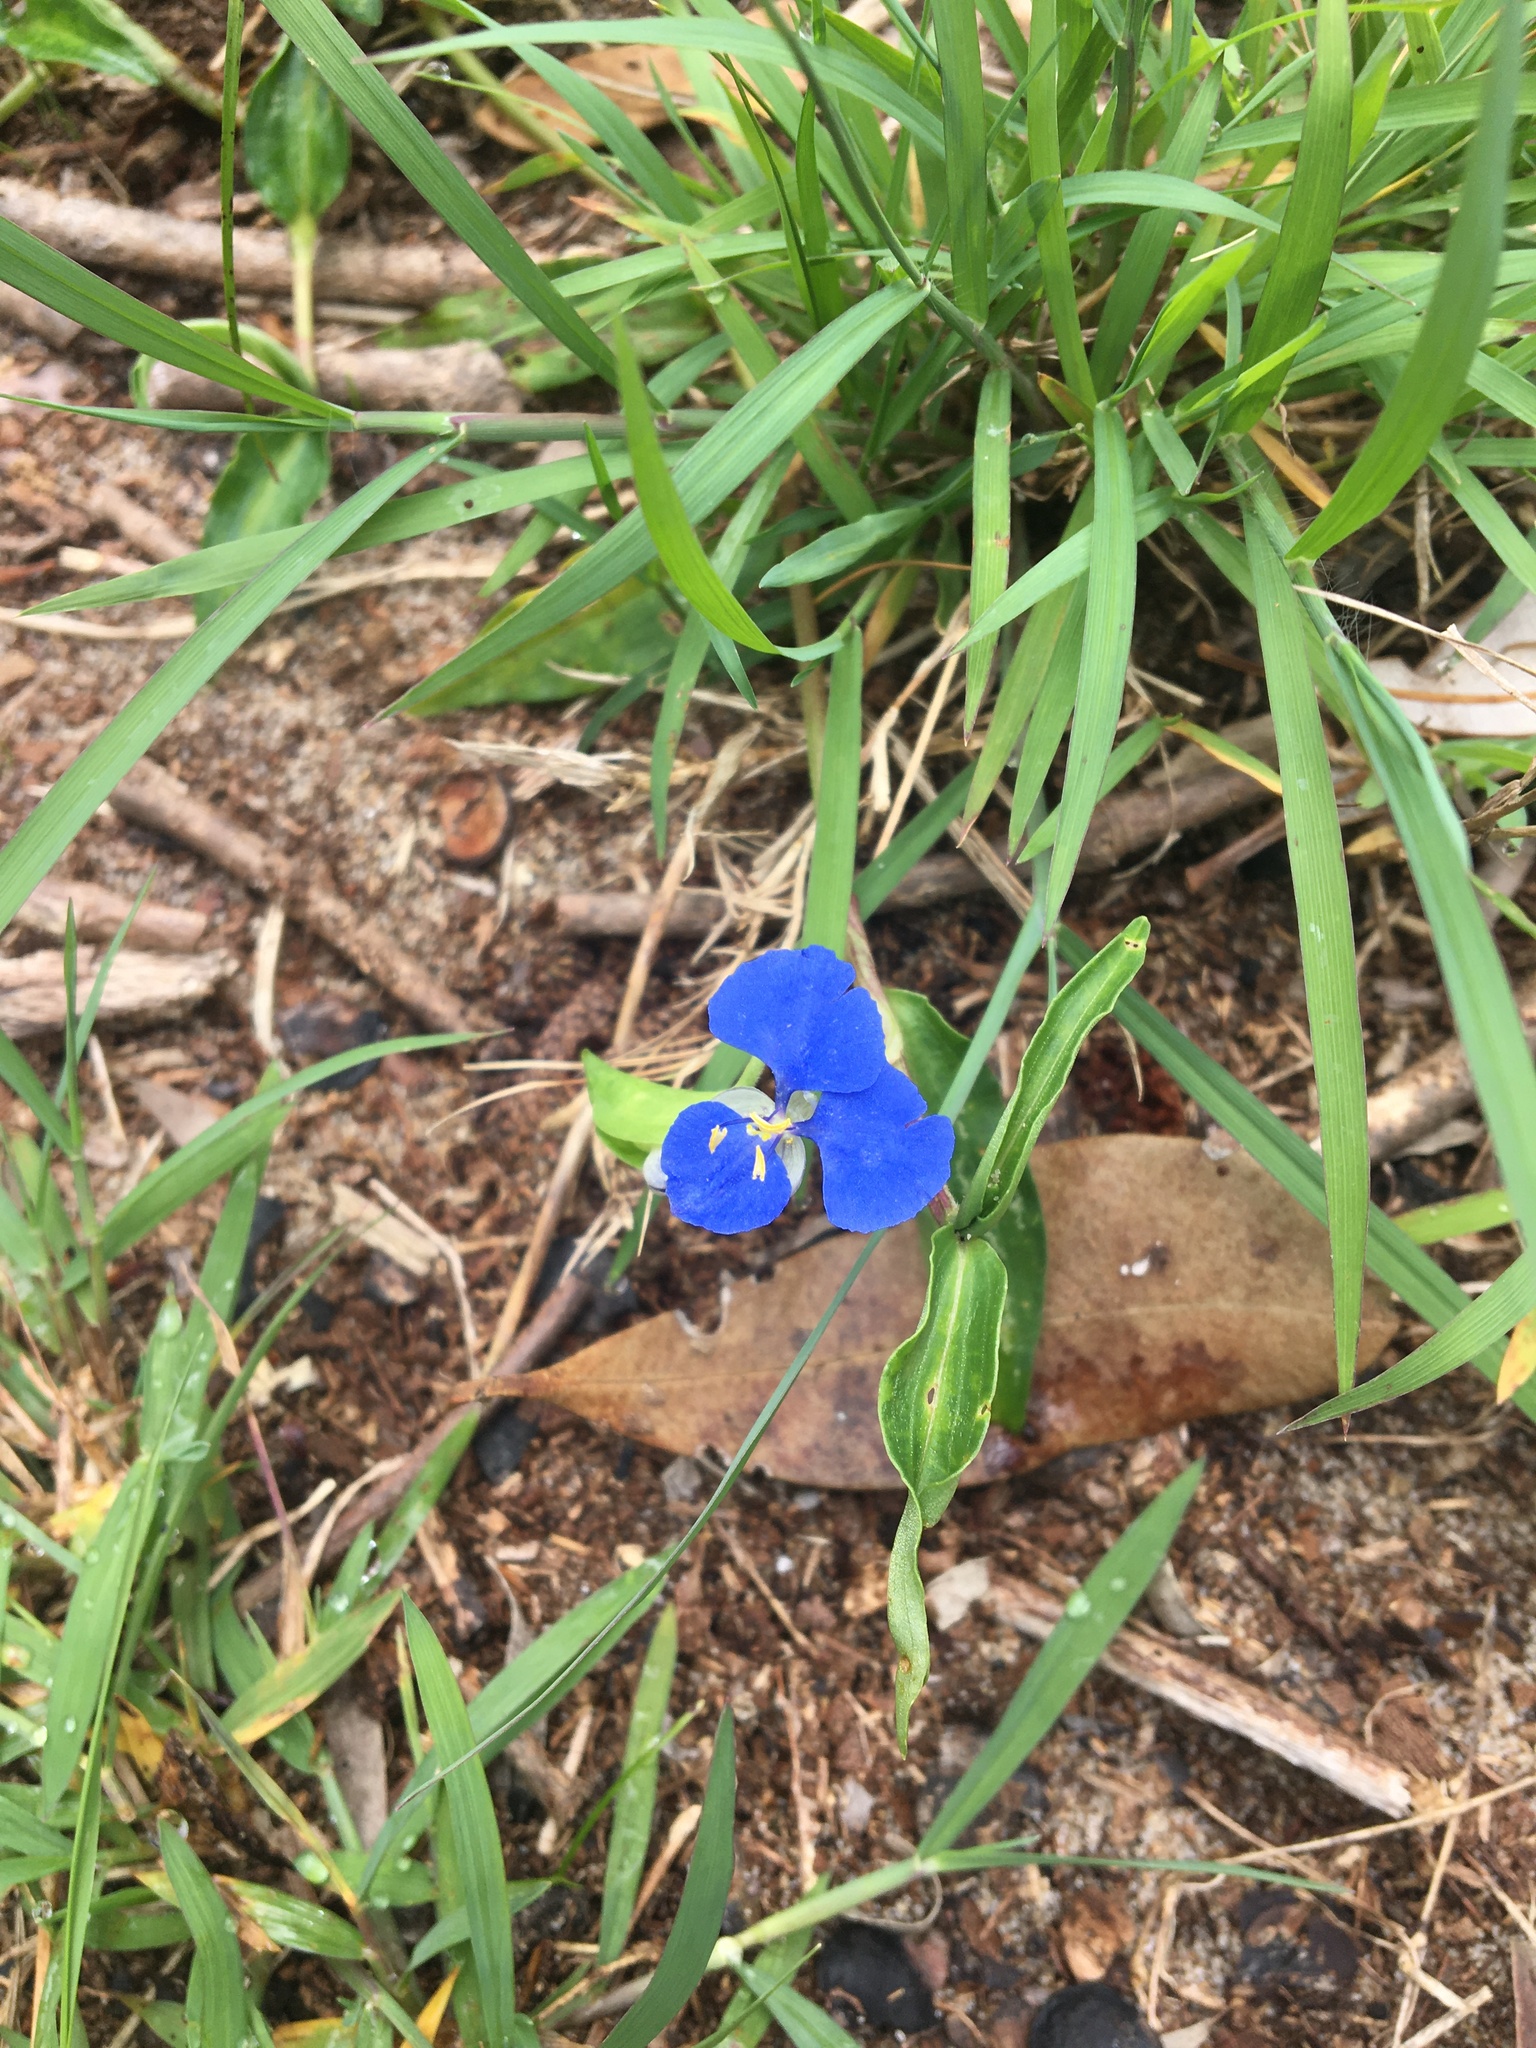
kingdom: Plantae
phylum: Tracheophyta
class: Liliopsida
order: Commelinales
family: Commelinaceae
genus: Commelina
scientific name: Commelina cyanea
